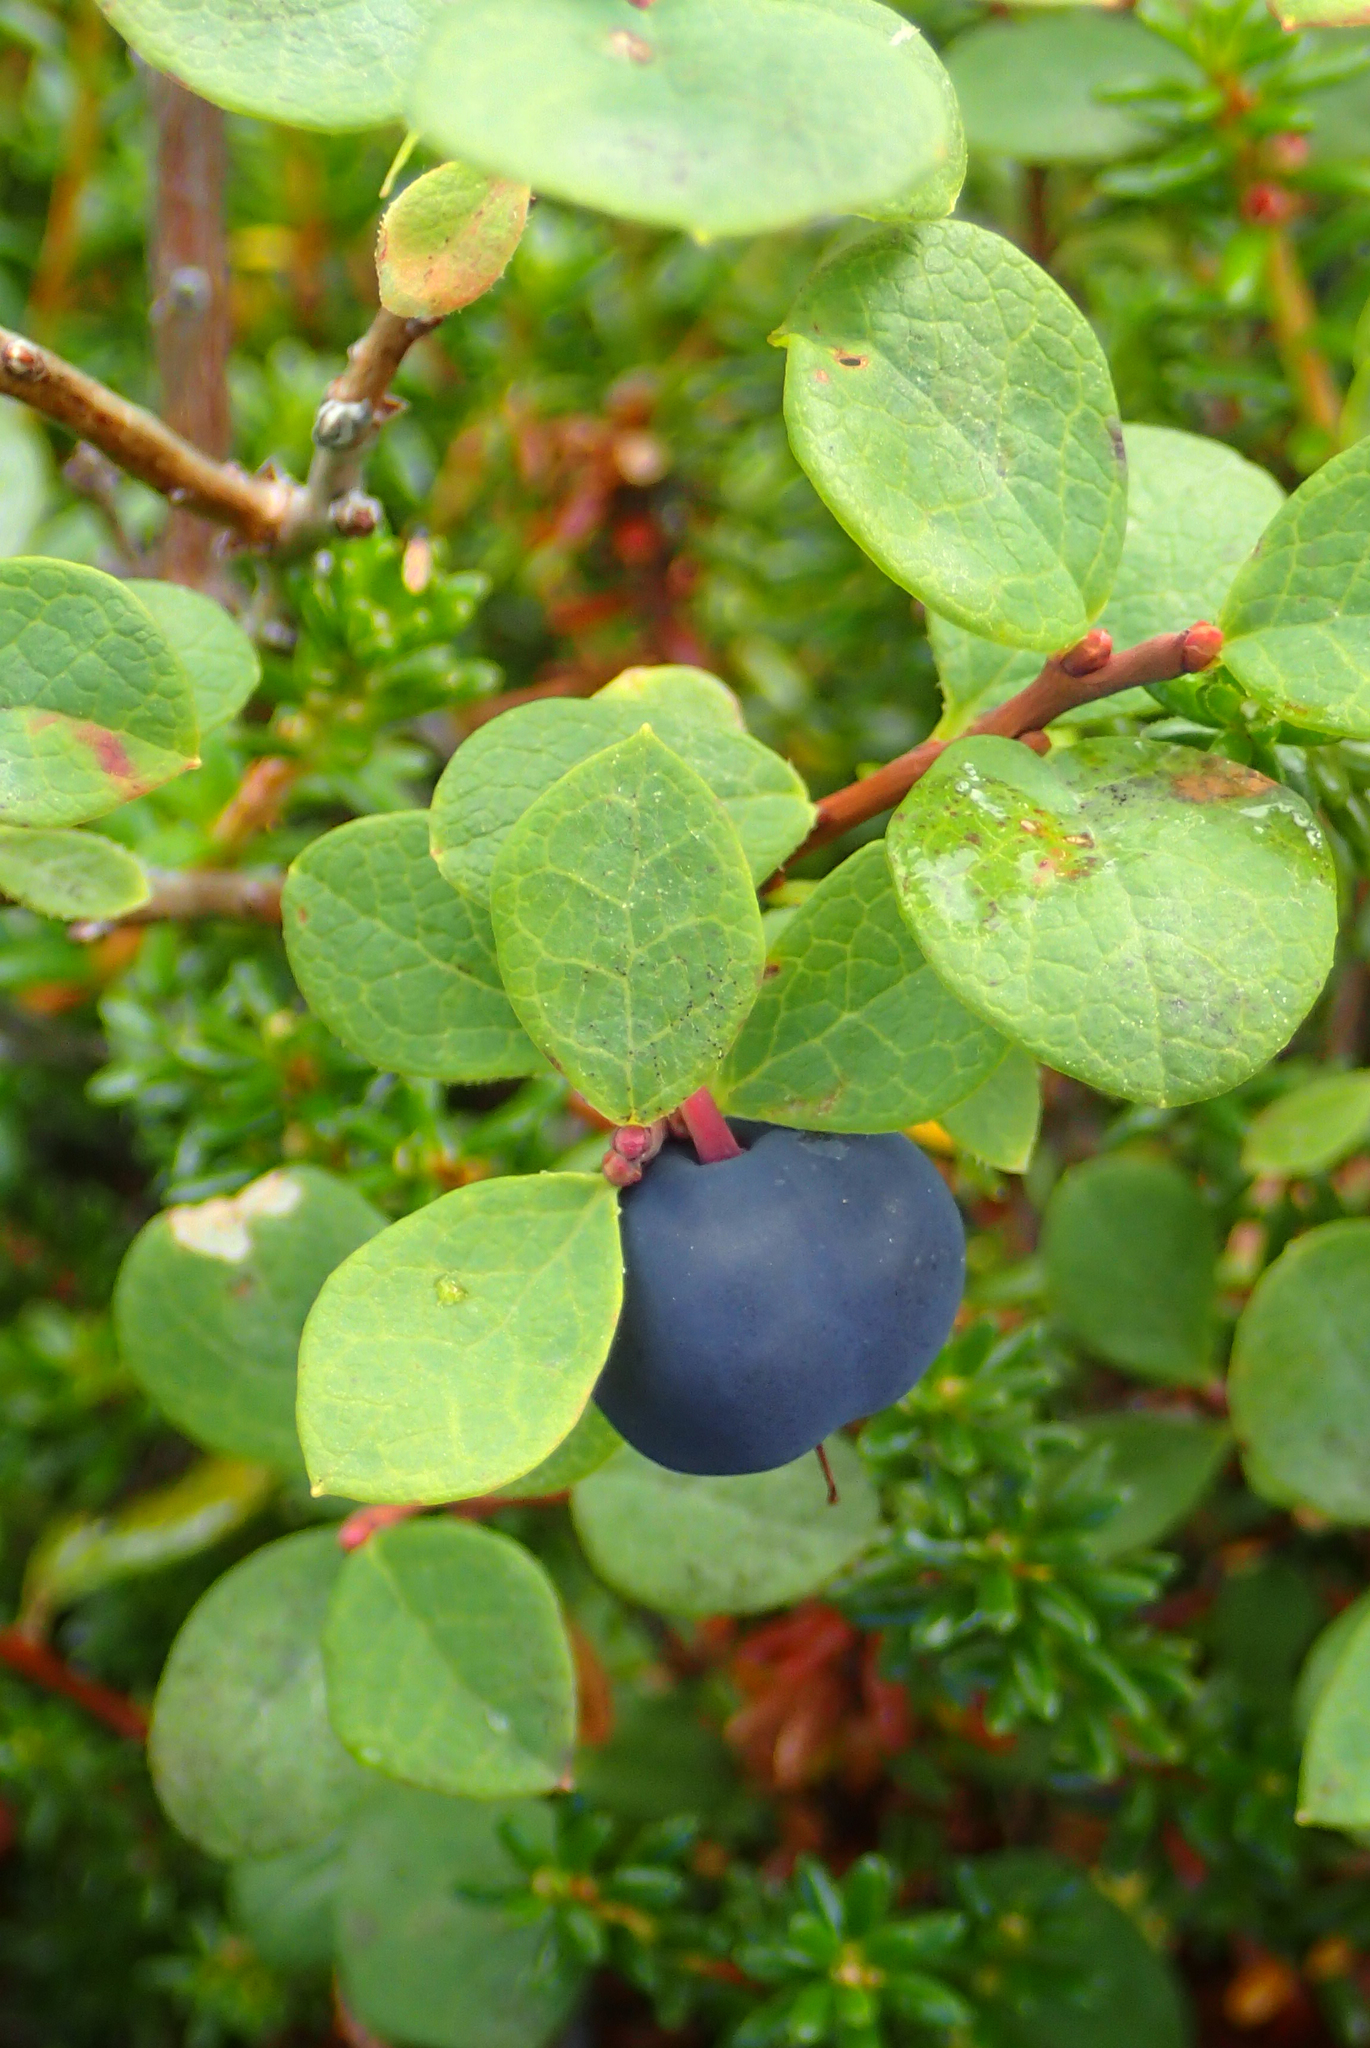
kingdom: Plantae
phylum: Tracheophyta
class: Magnoliopsida
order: Ericales
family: Ericaceae
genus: Vaccinium
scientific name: Vaccinium uliginosum
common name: Bog bilberry
